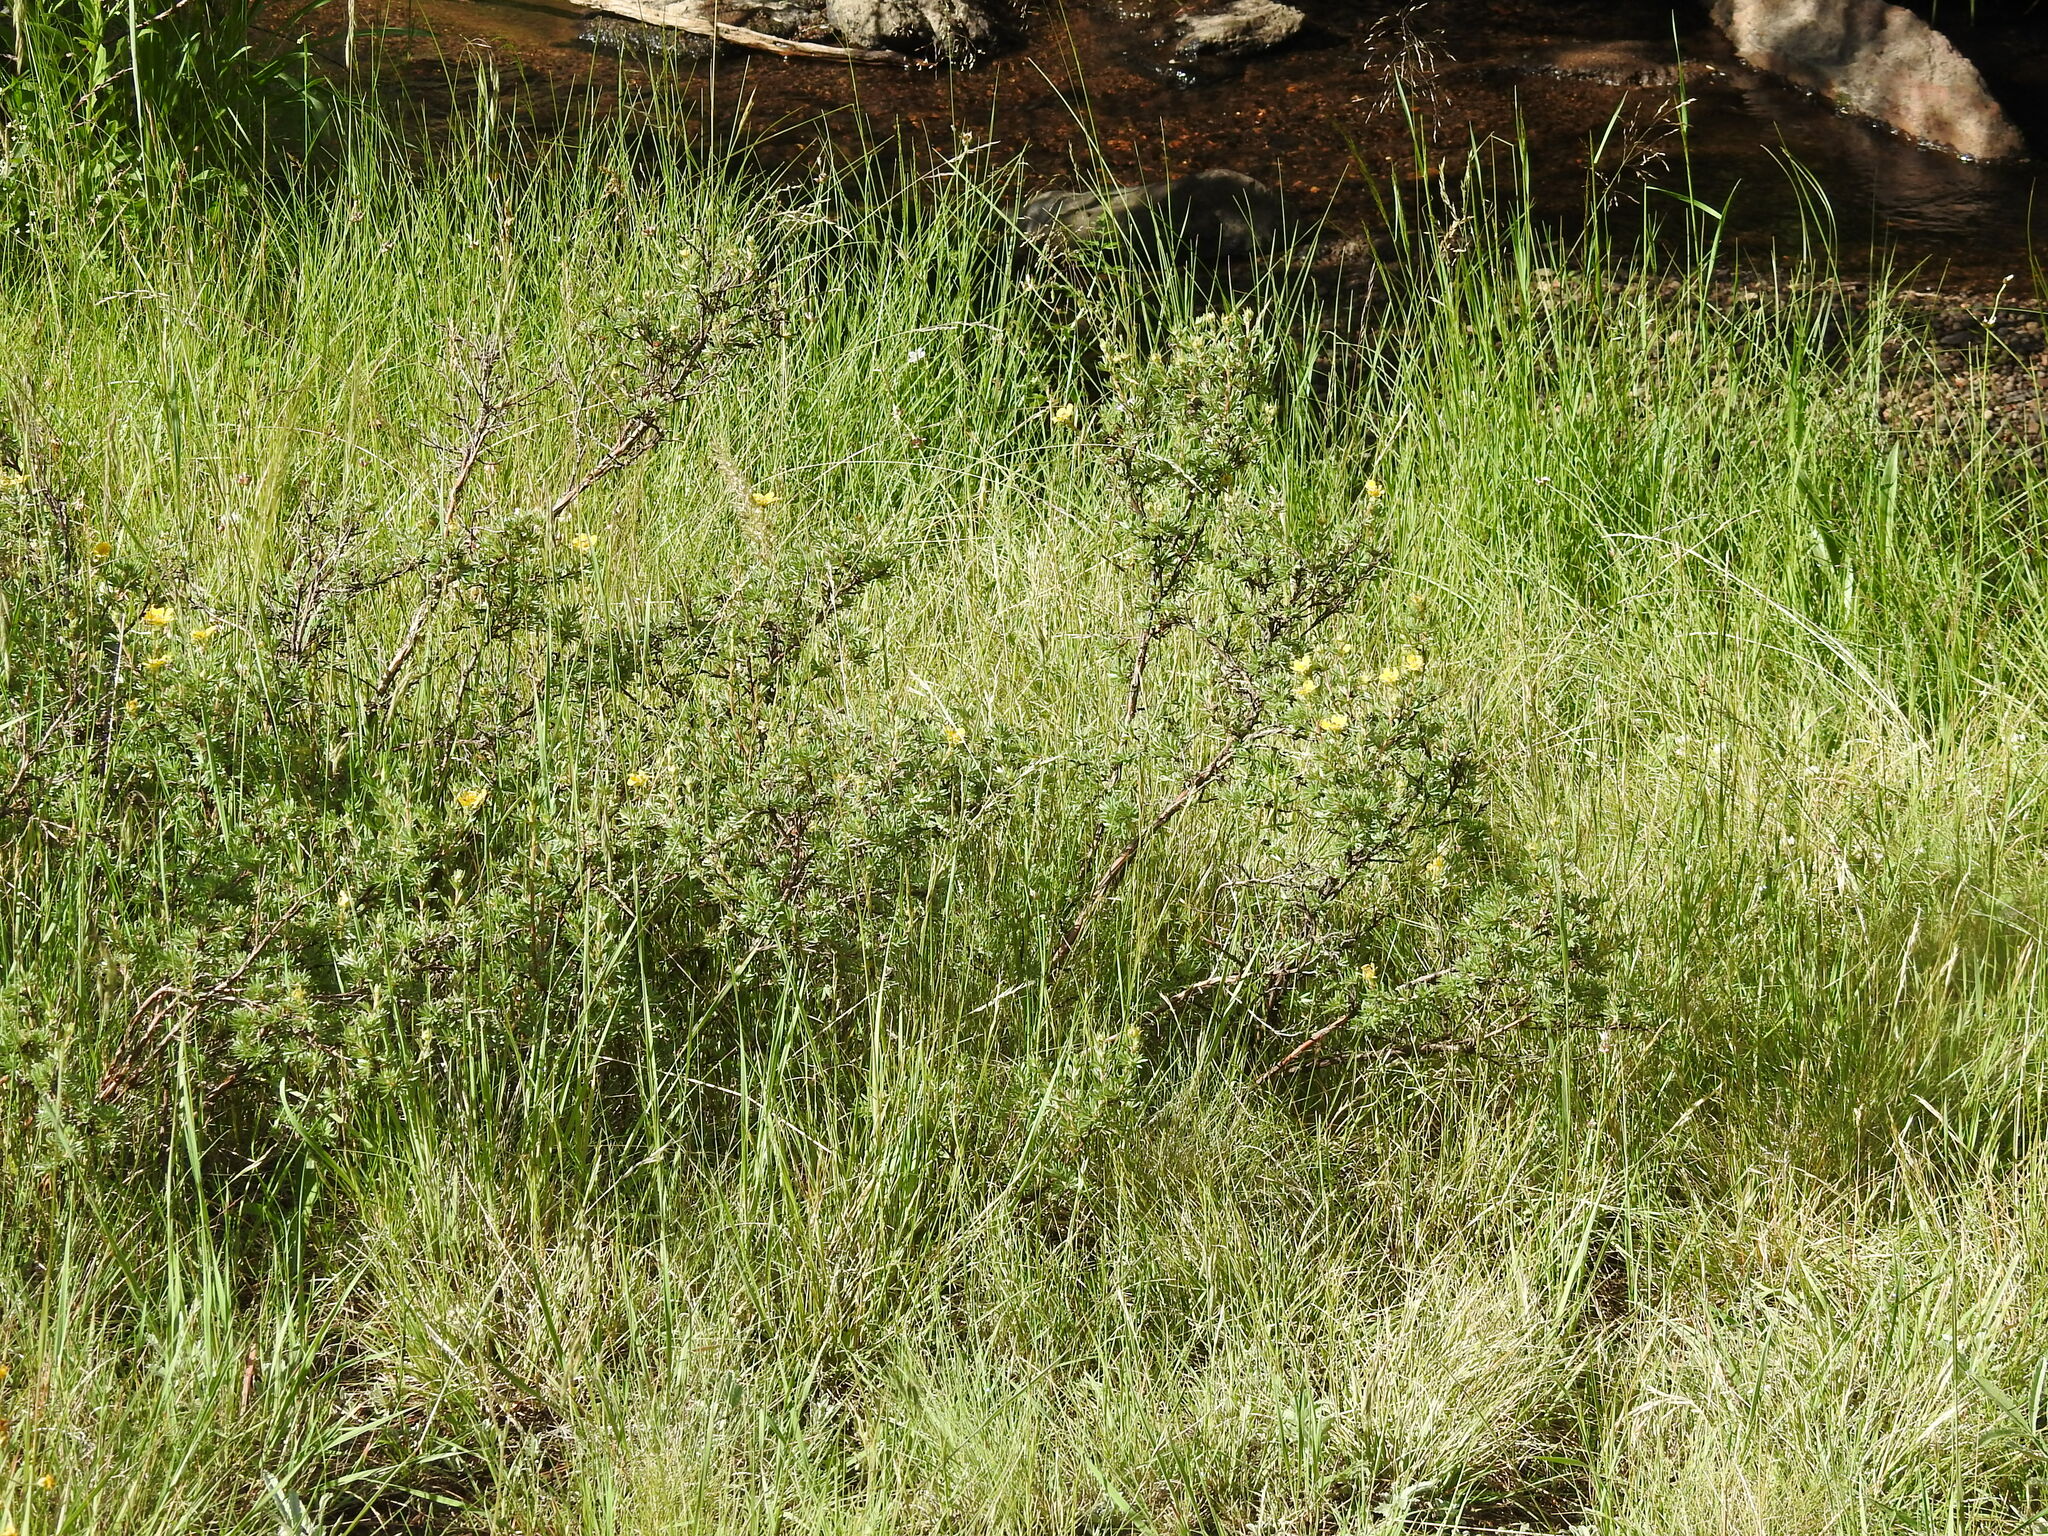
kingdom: Plantae
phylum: Tracheophyta
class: Magnoliopsida
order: Rosales
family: Rosaceae
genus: Dasiphora
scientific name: Dasiphora fruticosa
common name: Shrubby cinquefoil
